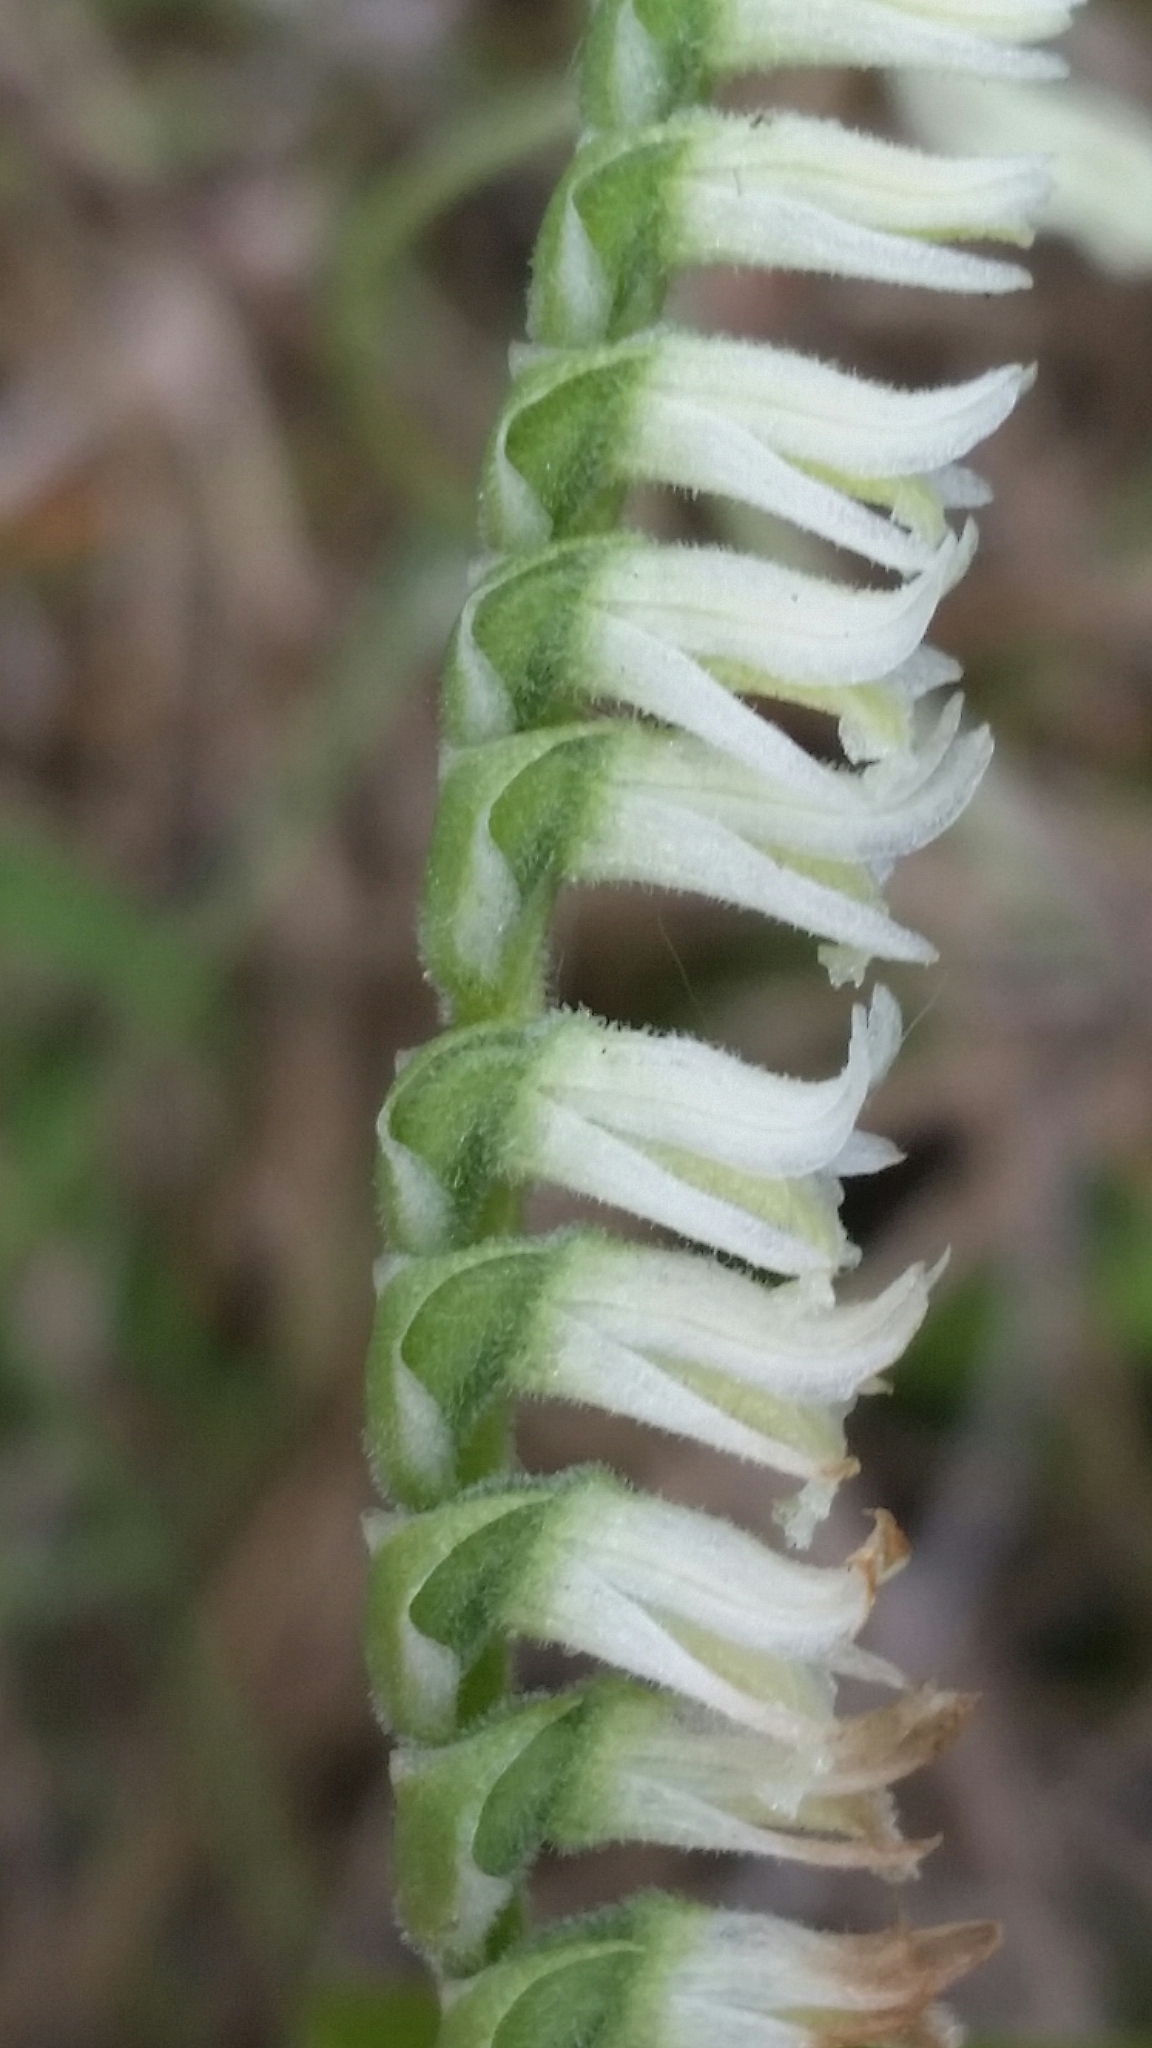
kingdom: Plantae
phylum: Tracheophyta
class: Liliopsida
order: Asparagales
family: Orchidaceae
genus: Spiranthes
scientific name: Spiranthes vernalis
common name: Spring ladies'-tresses
